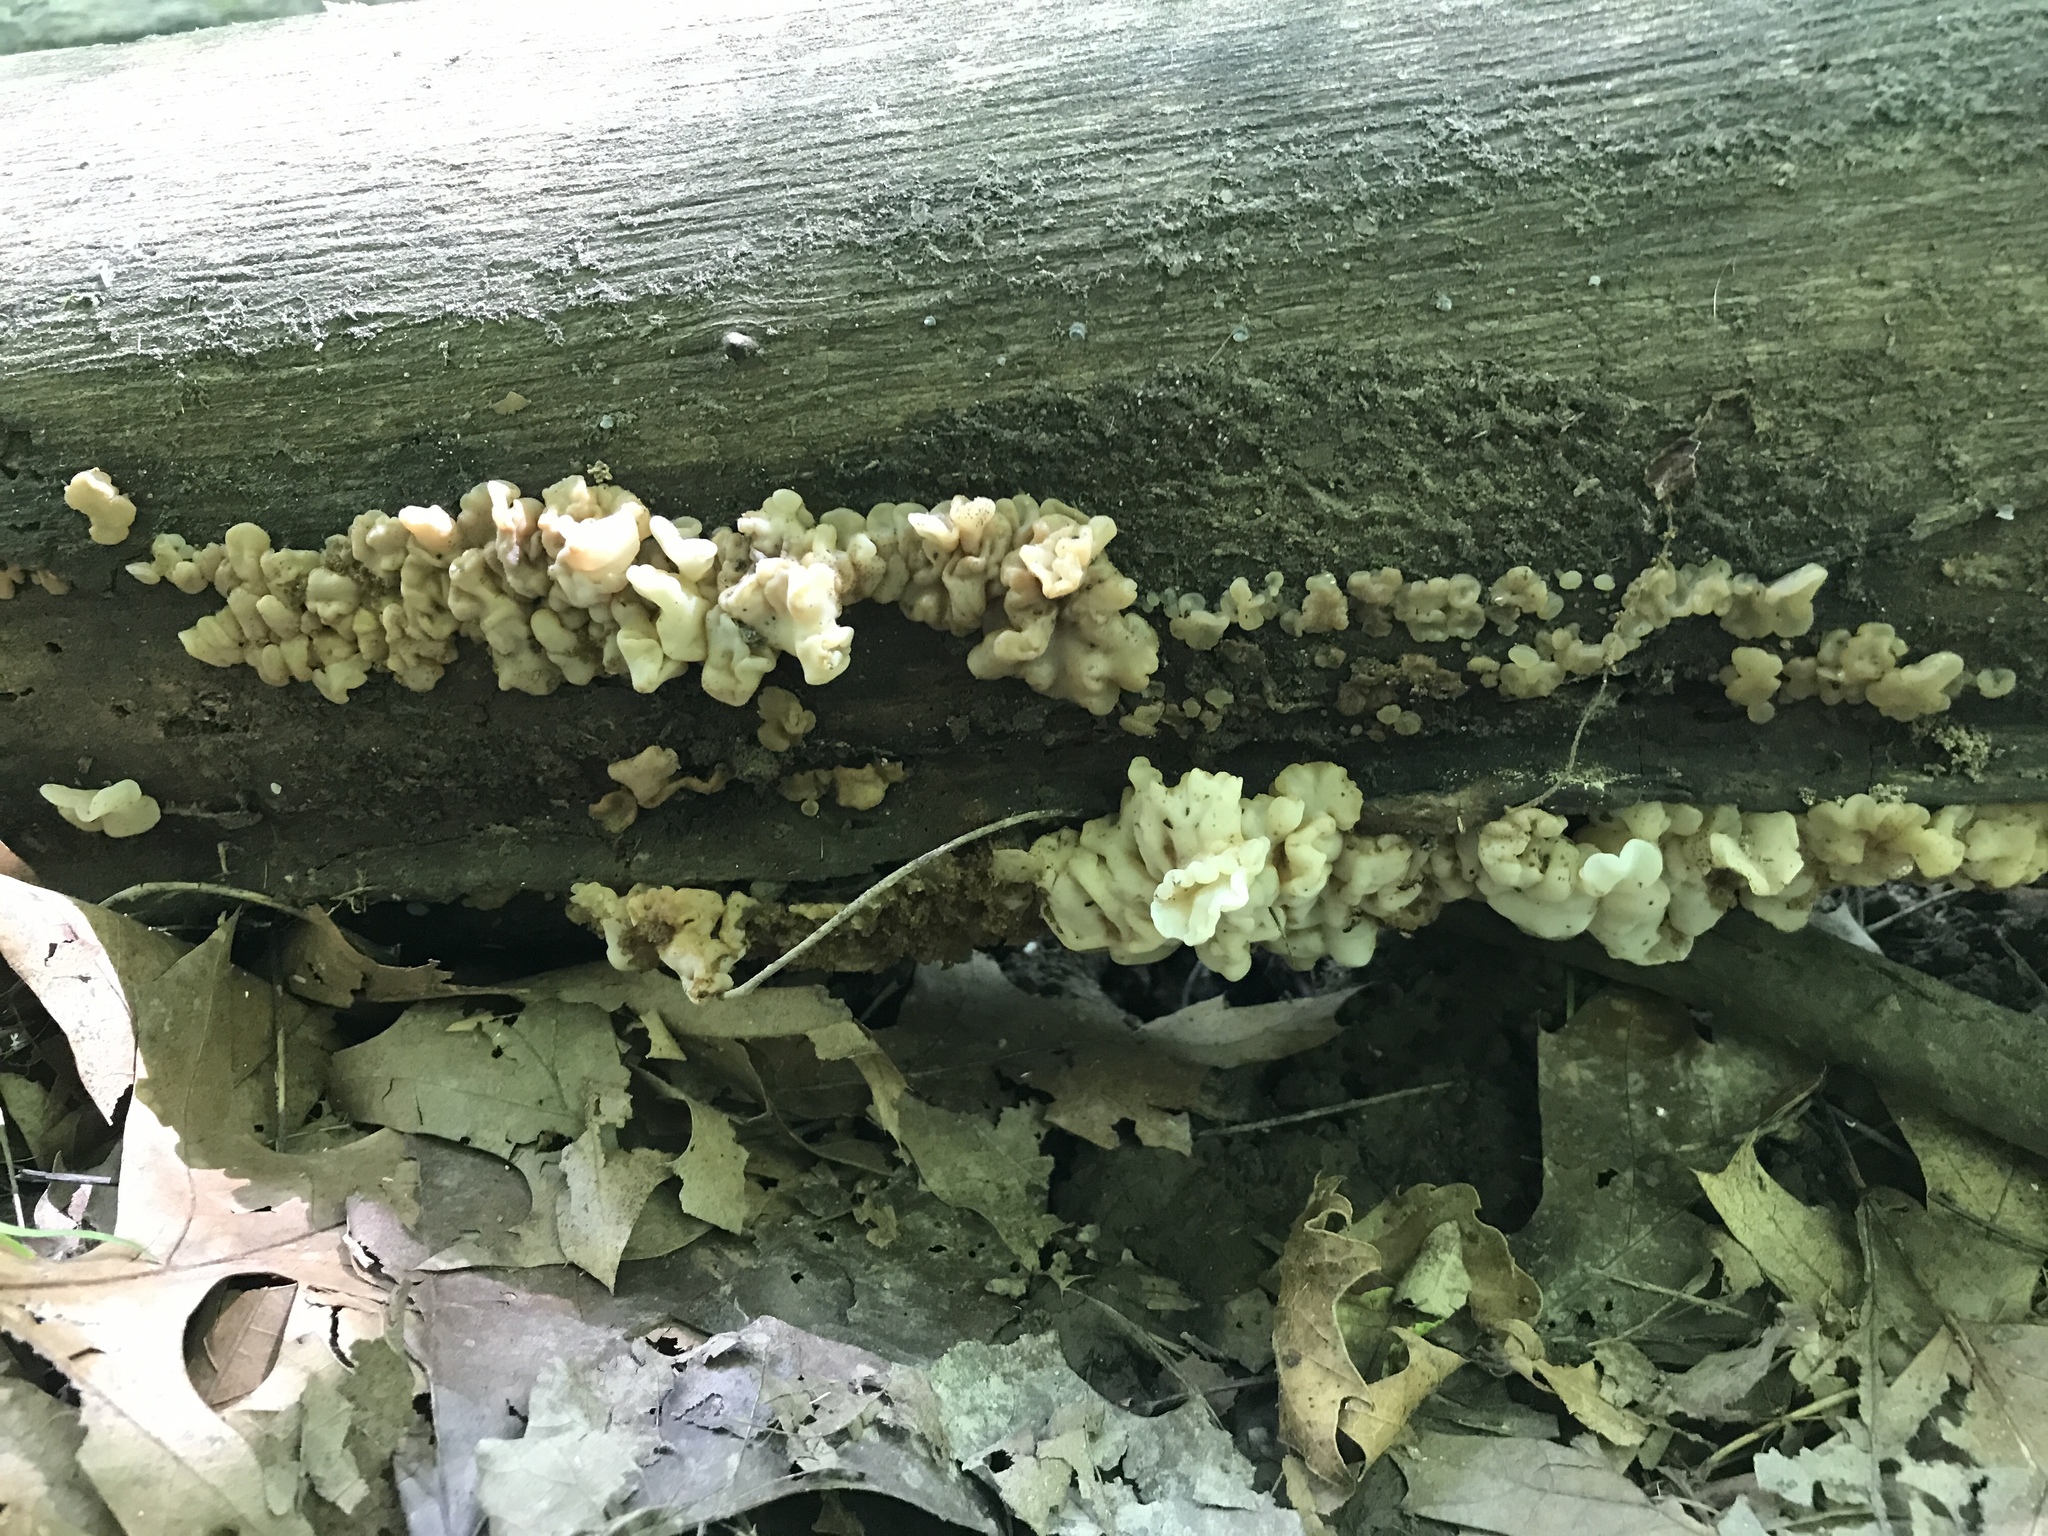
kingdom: Fungi
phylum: Basidiomycota
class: Agaricomycetes
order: Auriculariales
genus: Ductifera
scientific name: Ductifera pululahuana
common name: White jelly fungus
